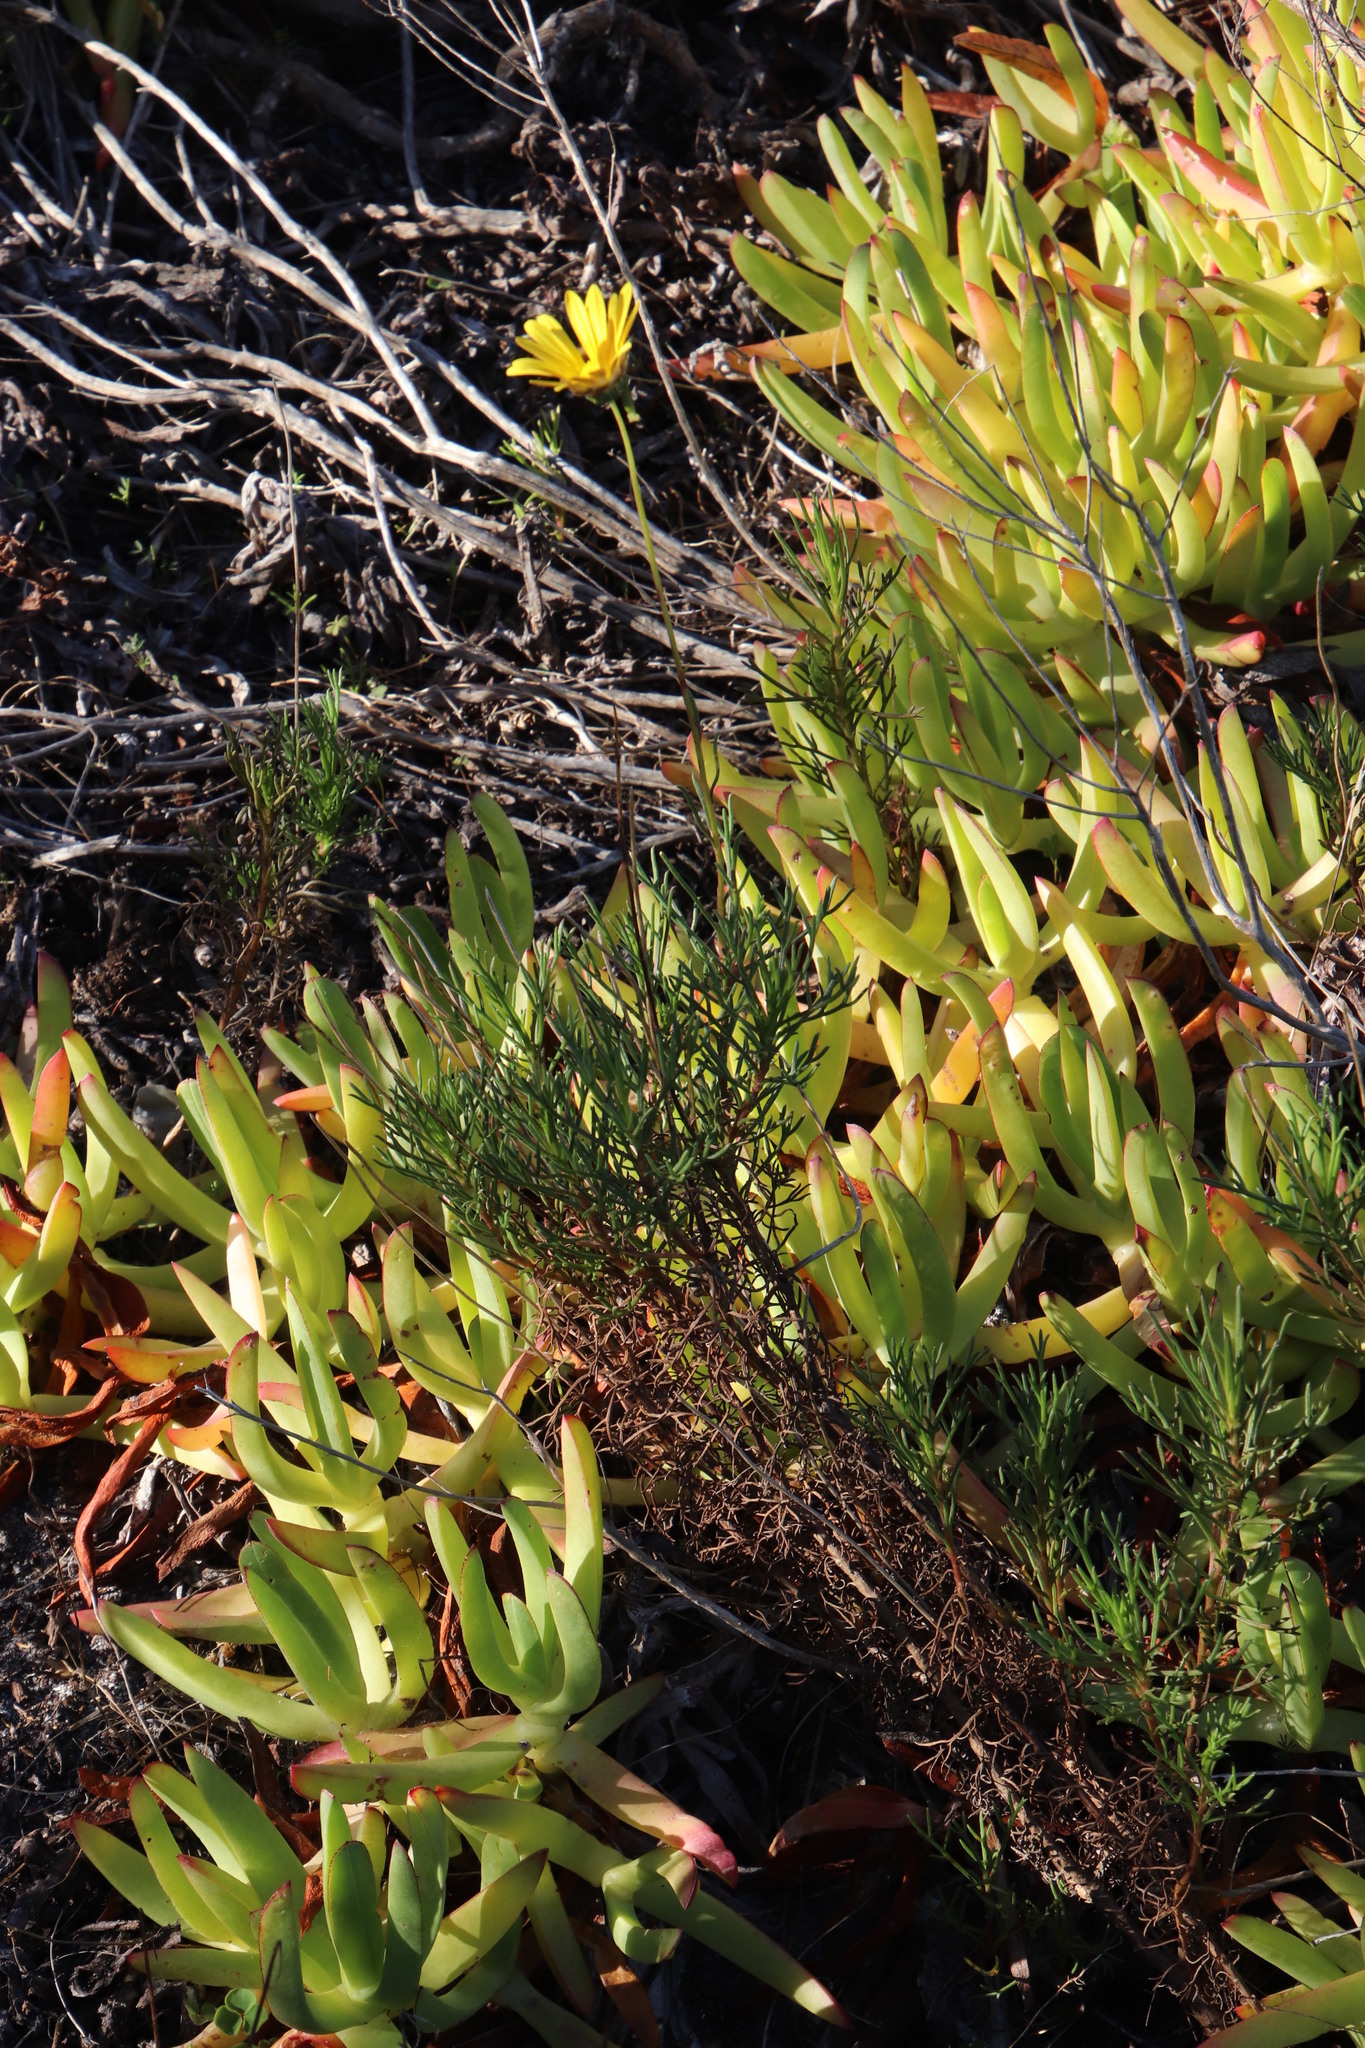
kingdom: Plantae
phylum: Tracheophyta
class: Magnoliopsida
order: Asterales
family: Asteraceae
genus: Ursinia
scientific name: Ursinia paleacea
